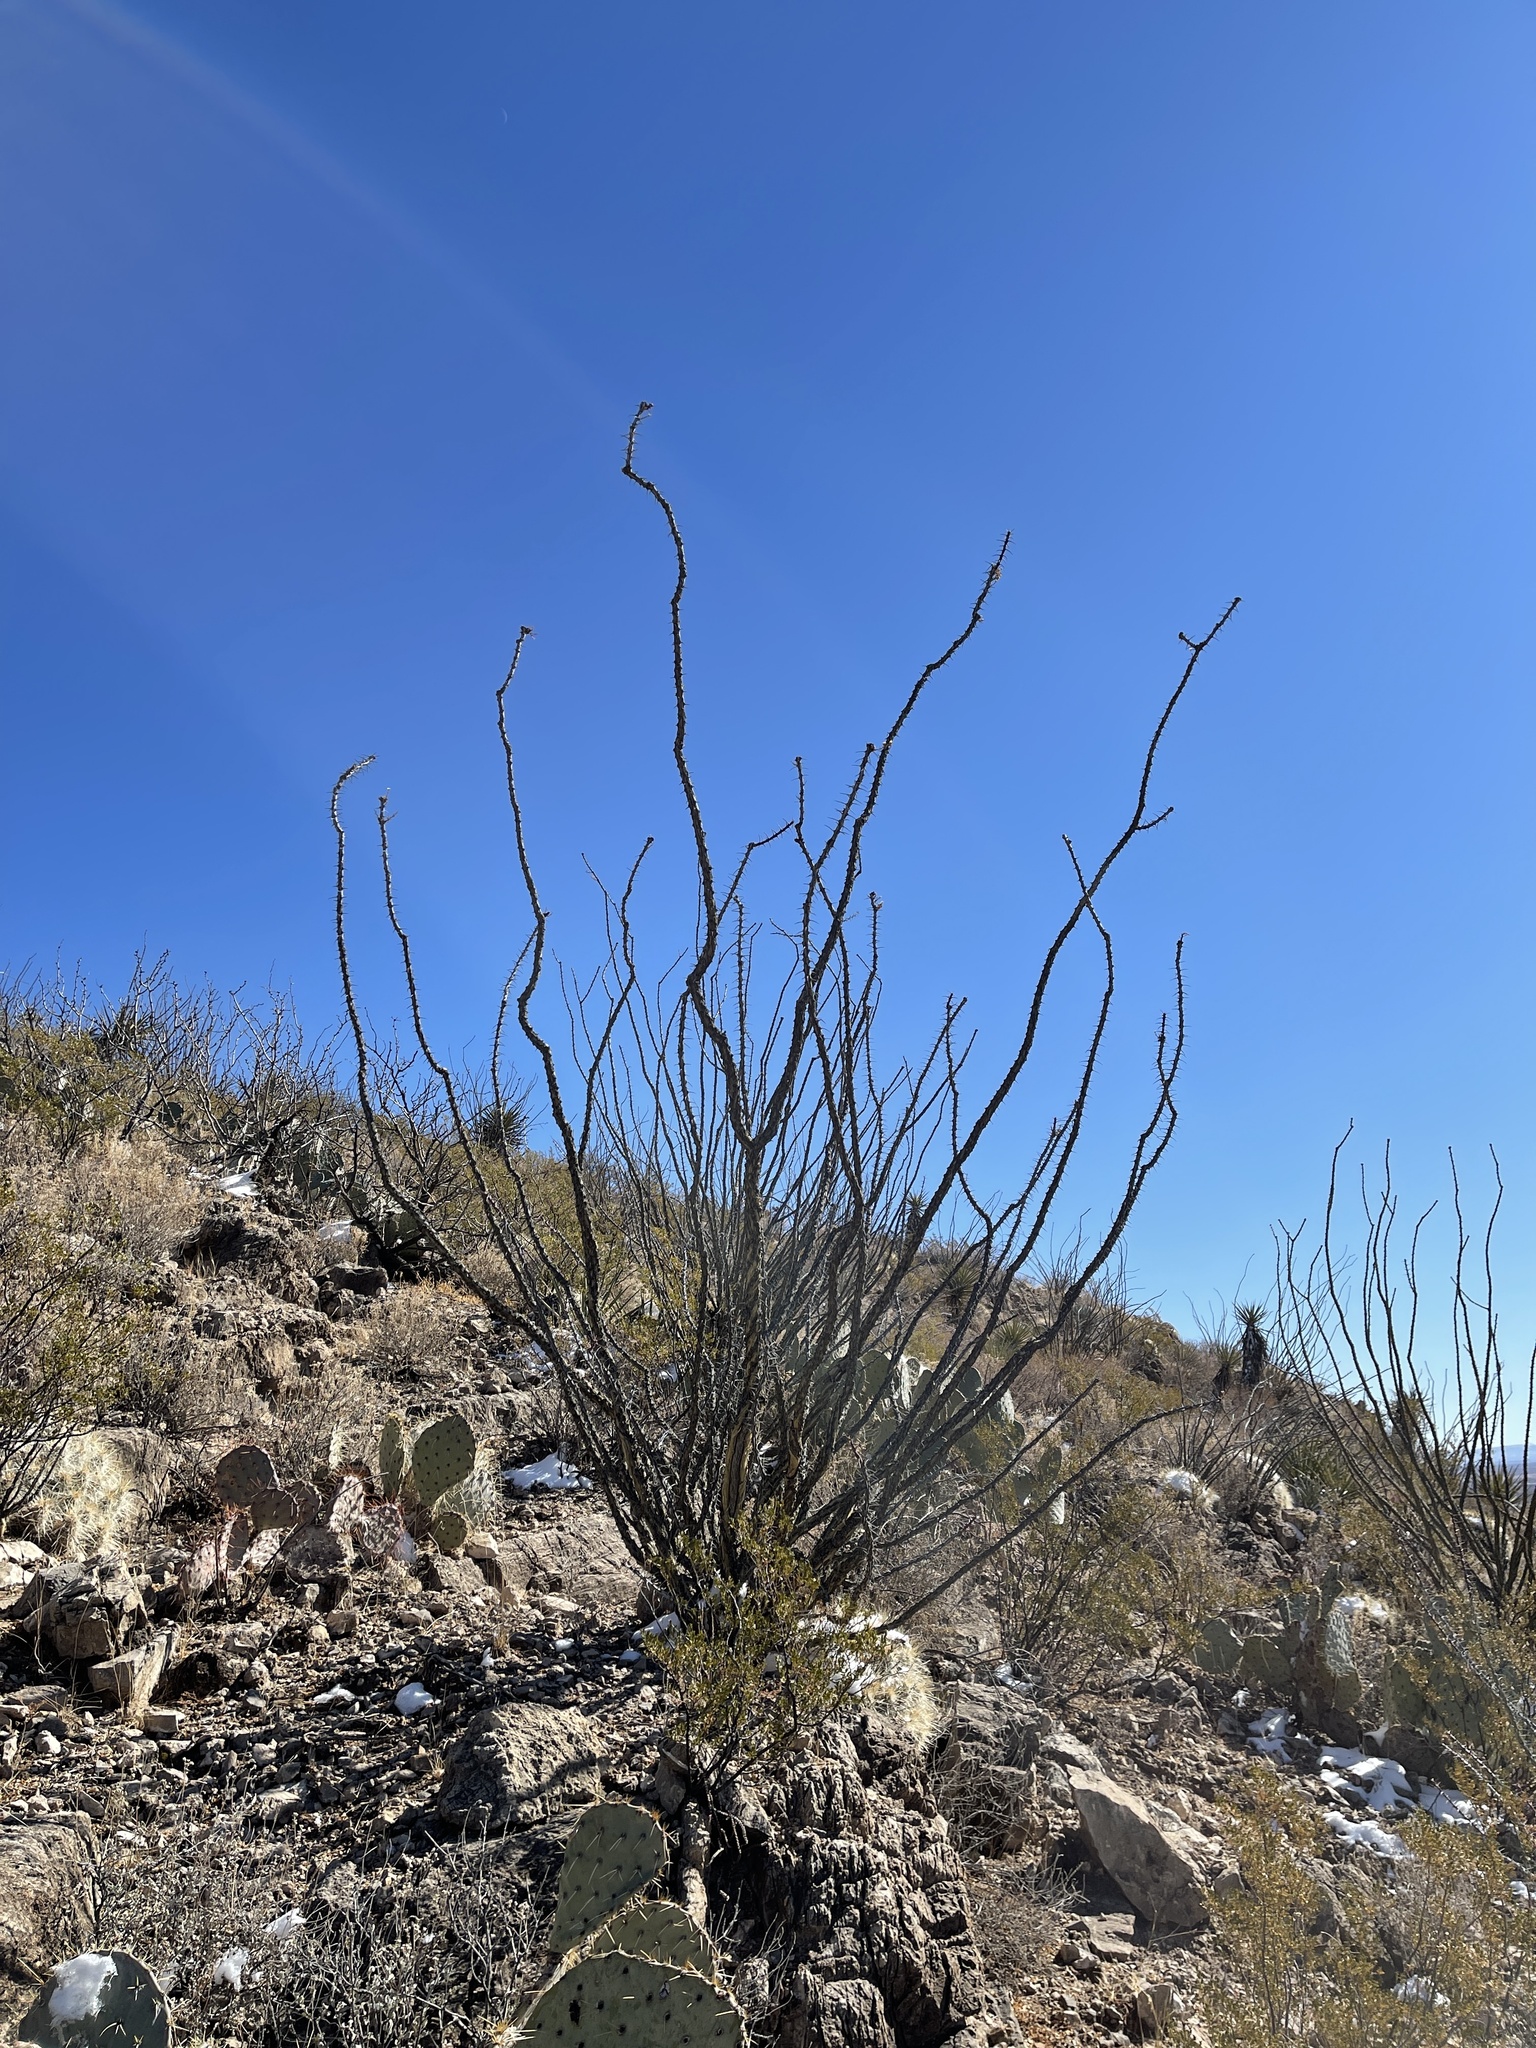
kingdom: Plantae
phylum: Tracheophyta
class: Magnoliopsida
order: Ericales
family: Fouquieriaceae
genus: Fouquieria
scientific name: Fouquieria splendens
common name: Vine-cactus
